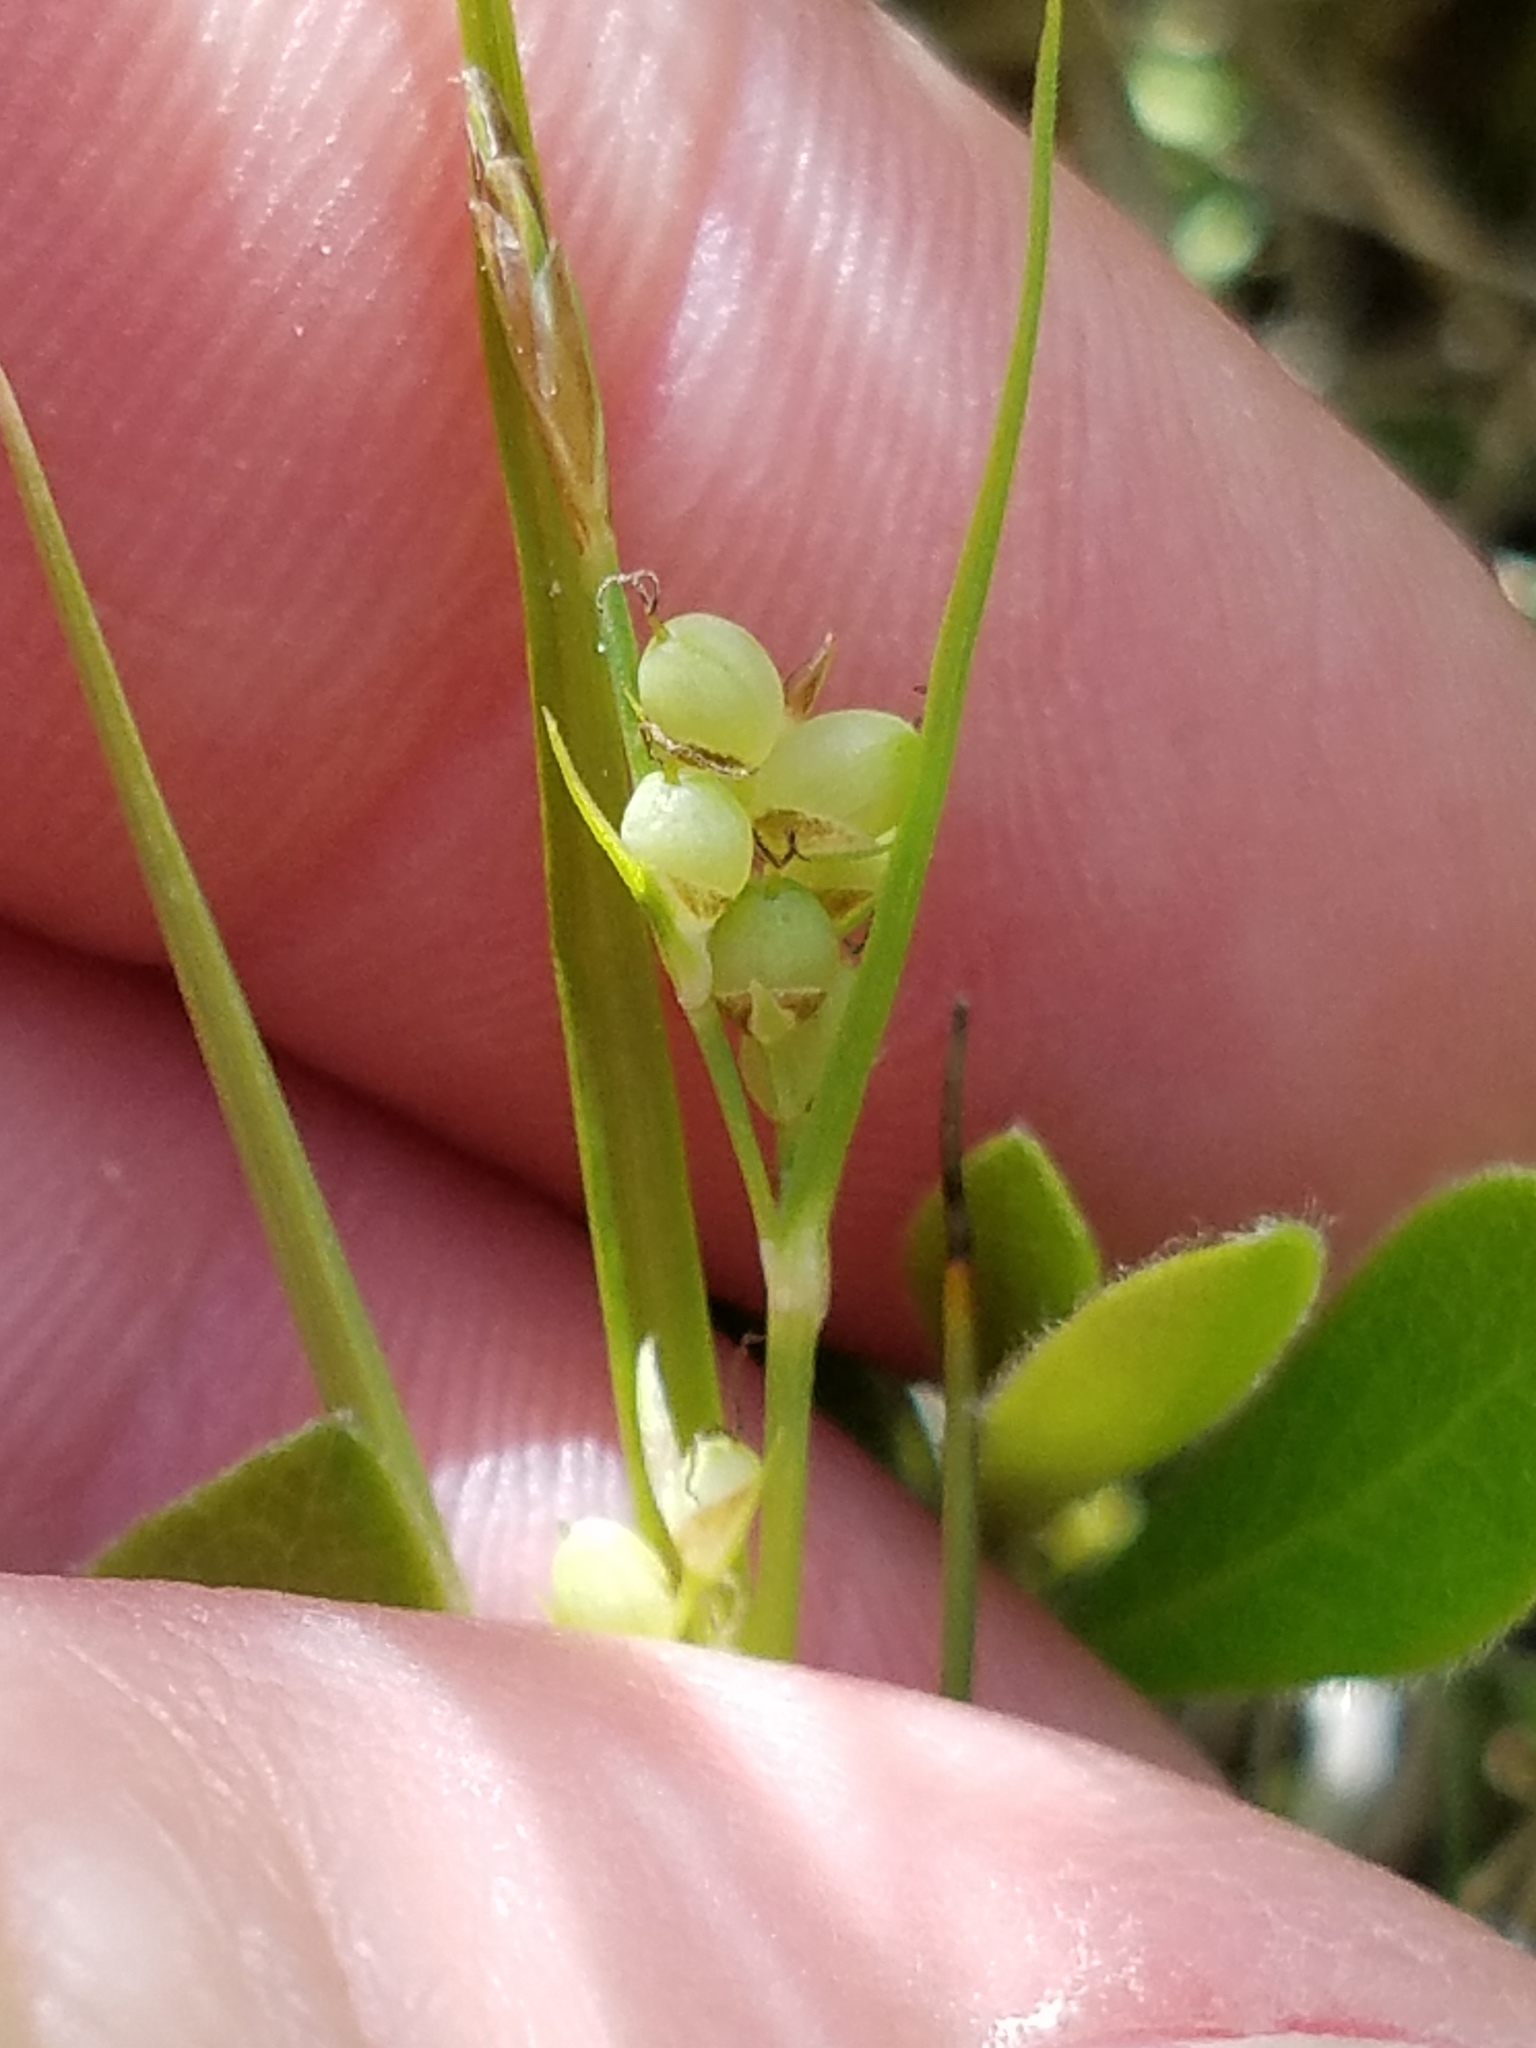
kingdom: Plantae
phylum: Tracheophyta
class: Liliopsida
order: Poales
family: Cyperaceae
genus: Carex
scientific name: Carex aurea
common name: Golden sedge
